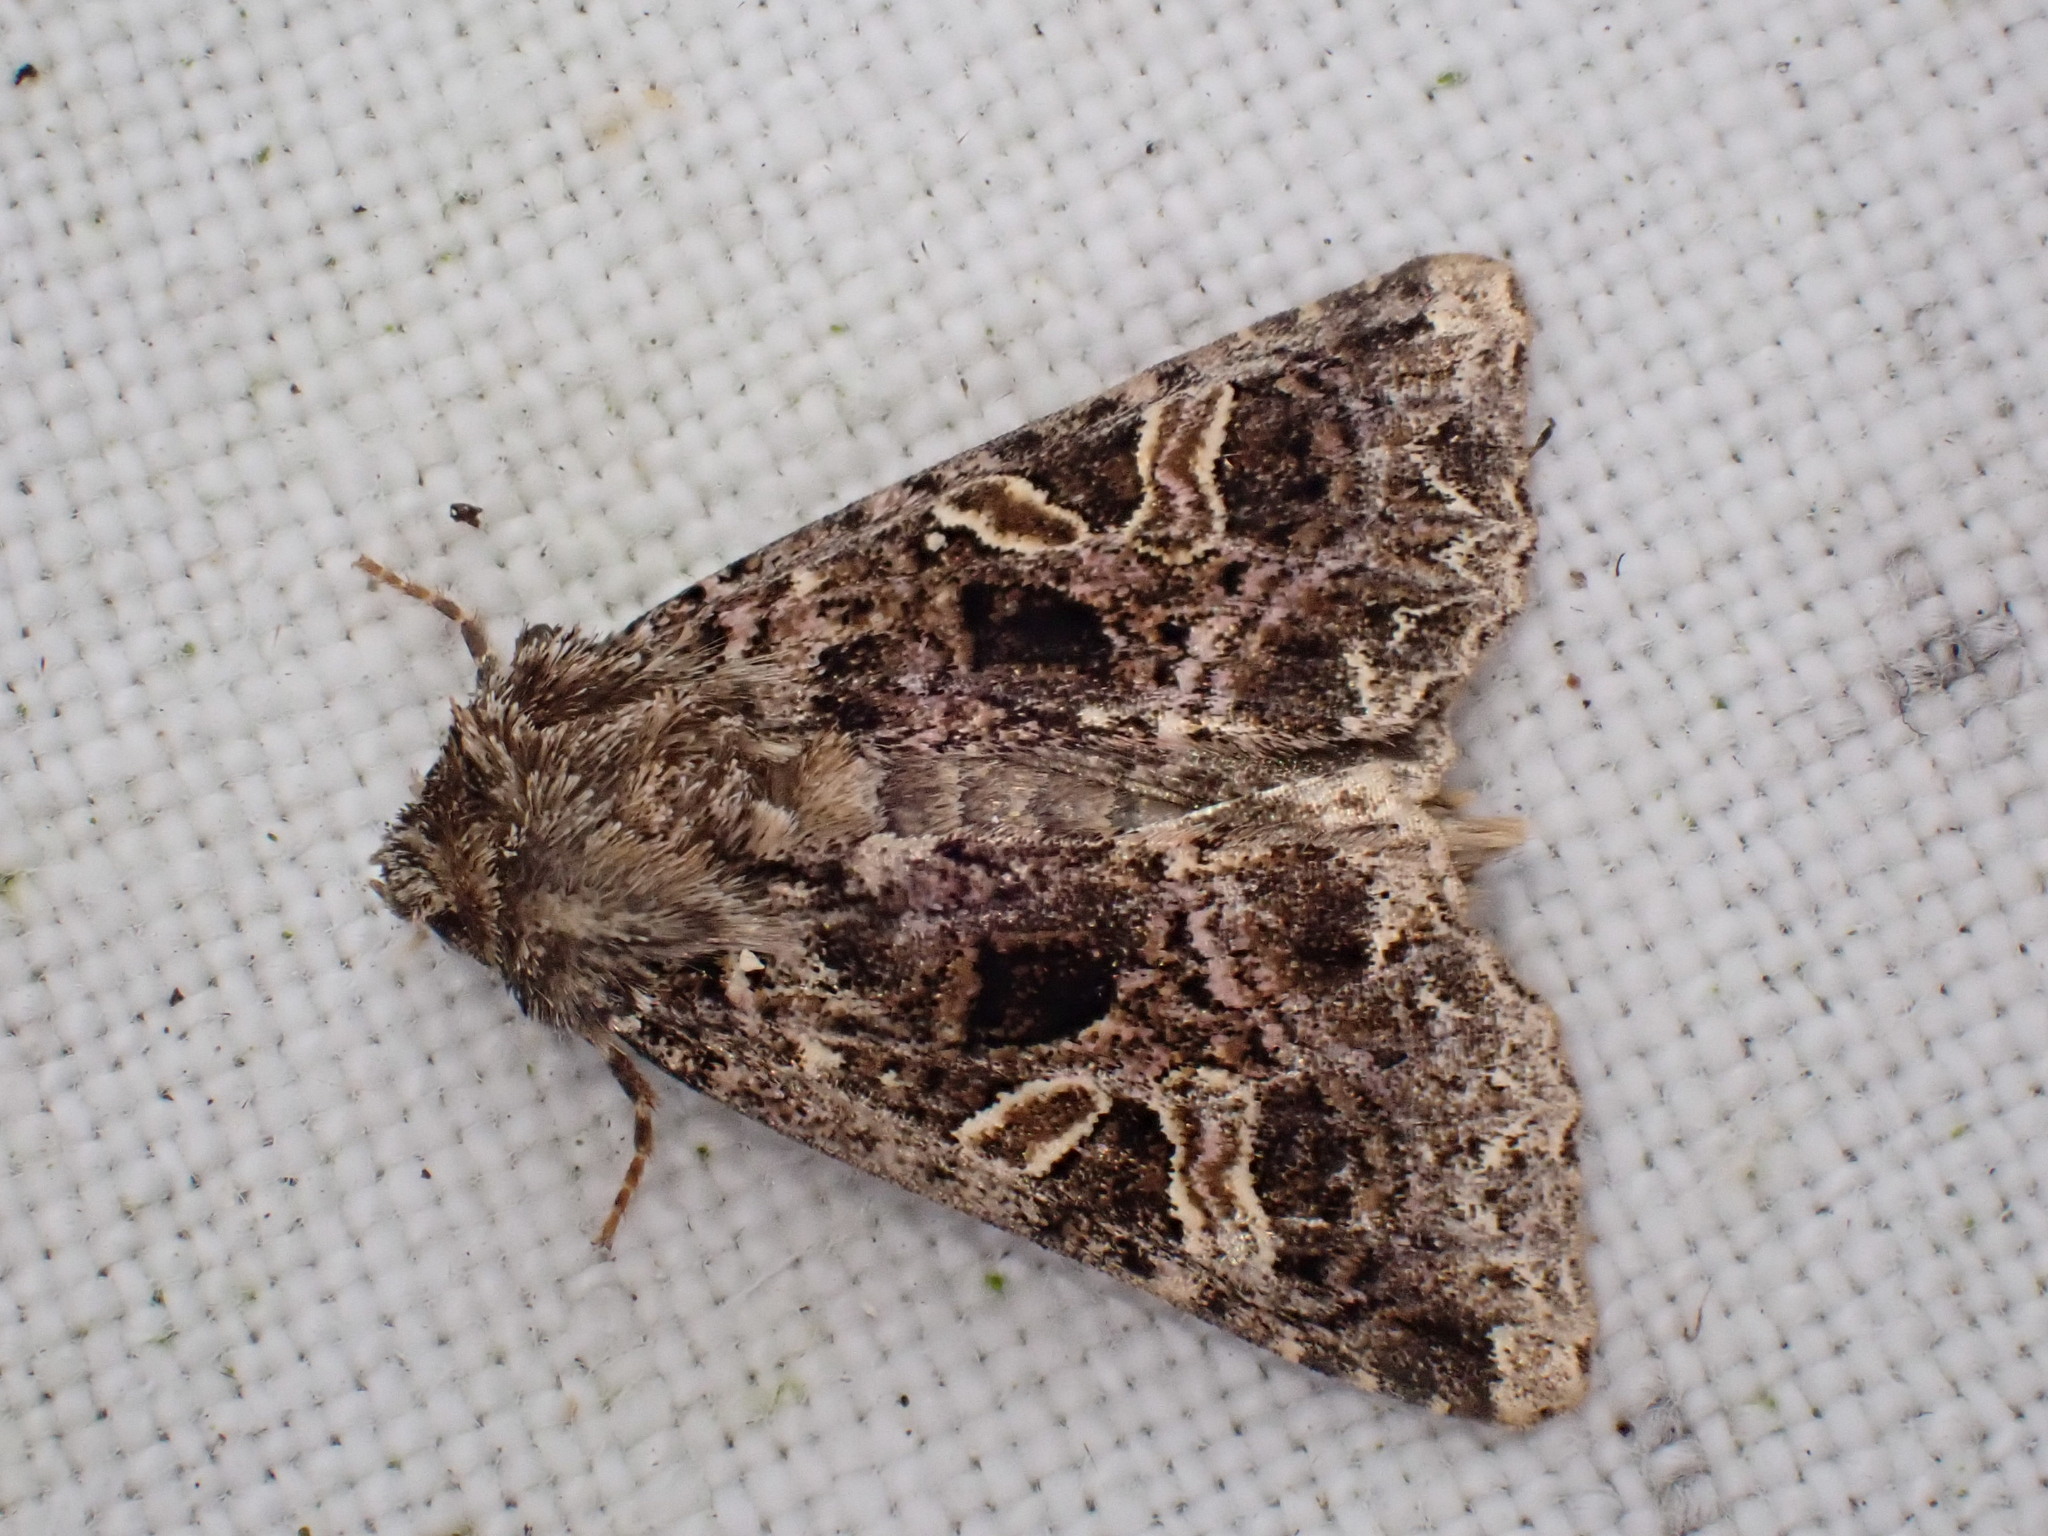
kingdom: Animalia
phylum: Arthropoda
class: Insecta
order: Lepidoptera
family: Noctuidae
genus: Sideridis
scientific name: Sideridis rivularis
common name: Campion
